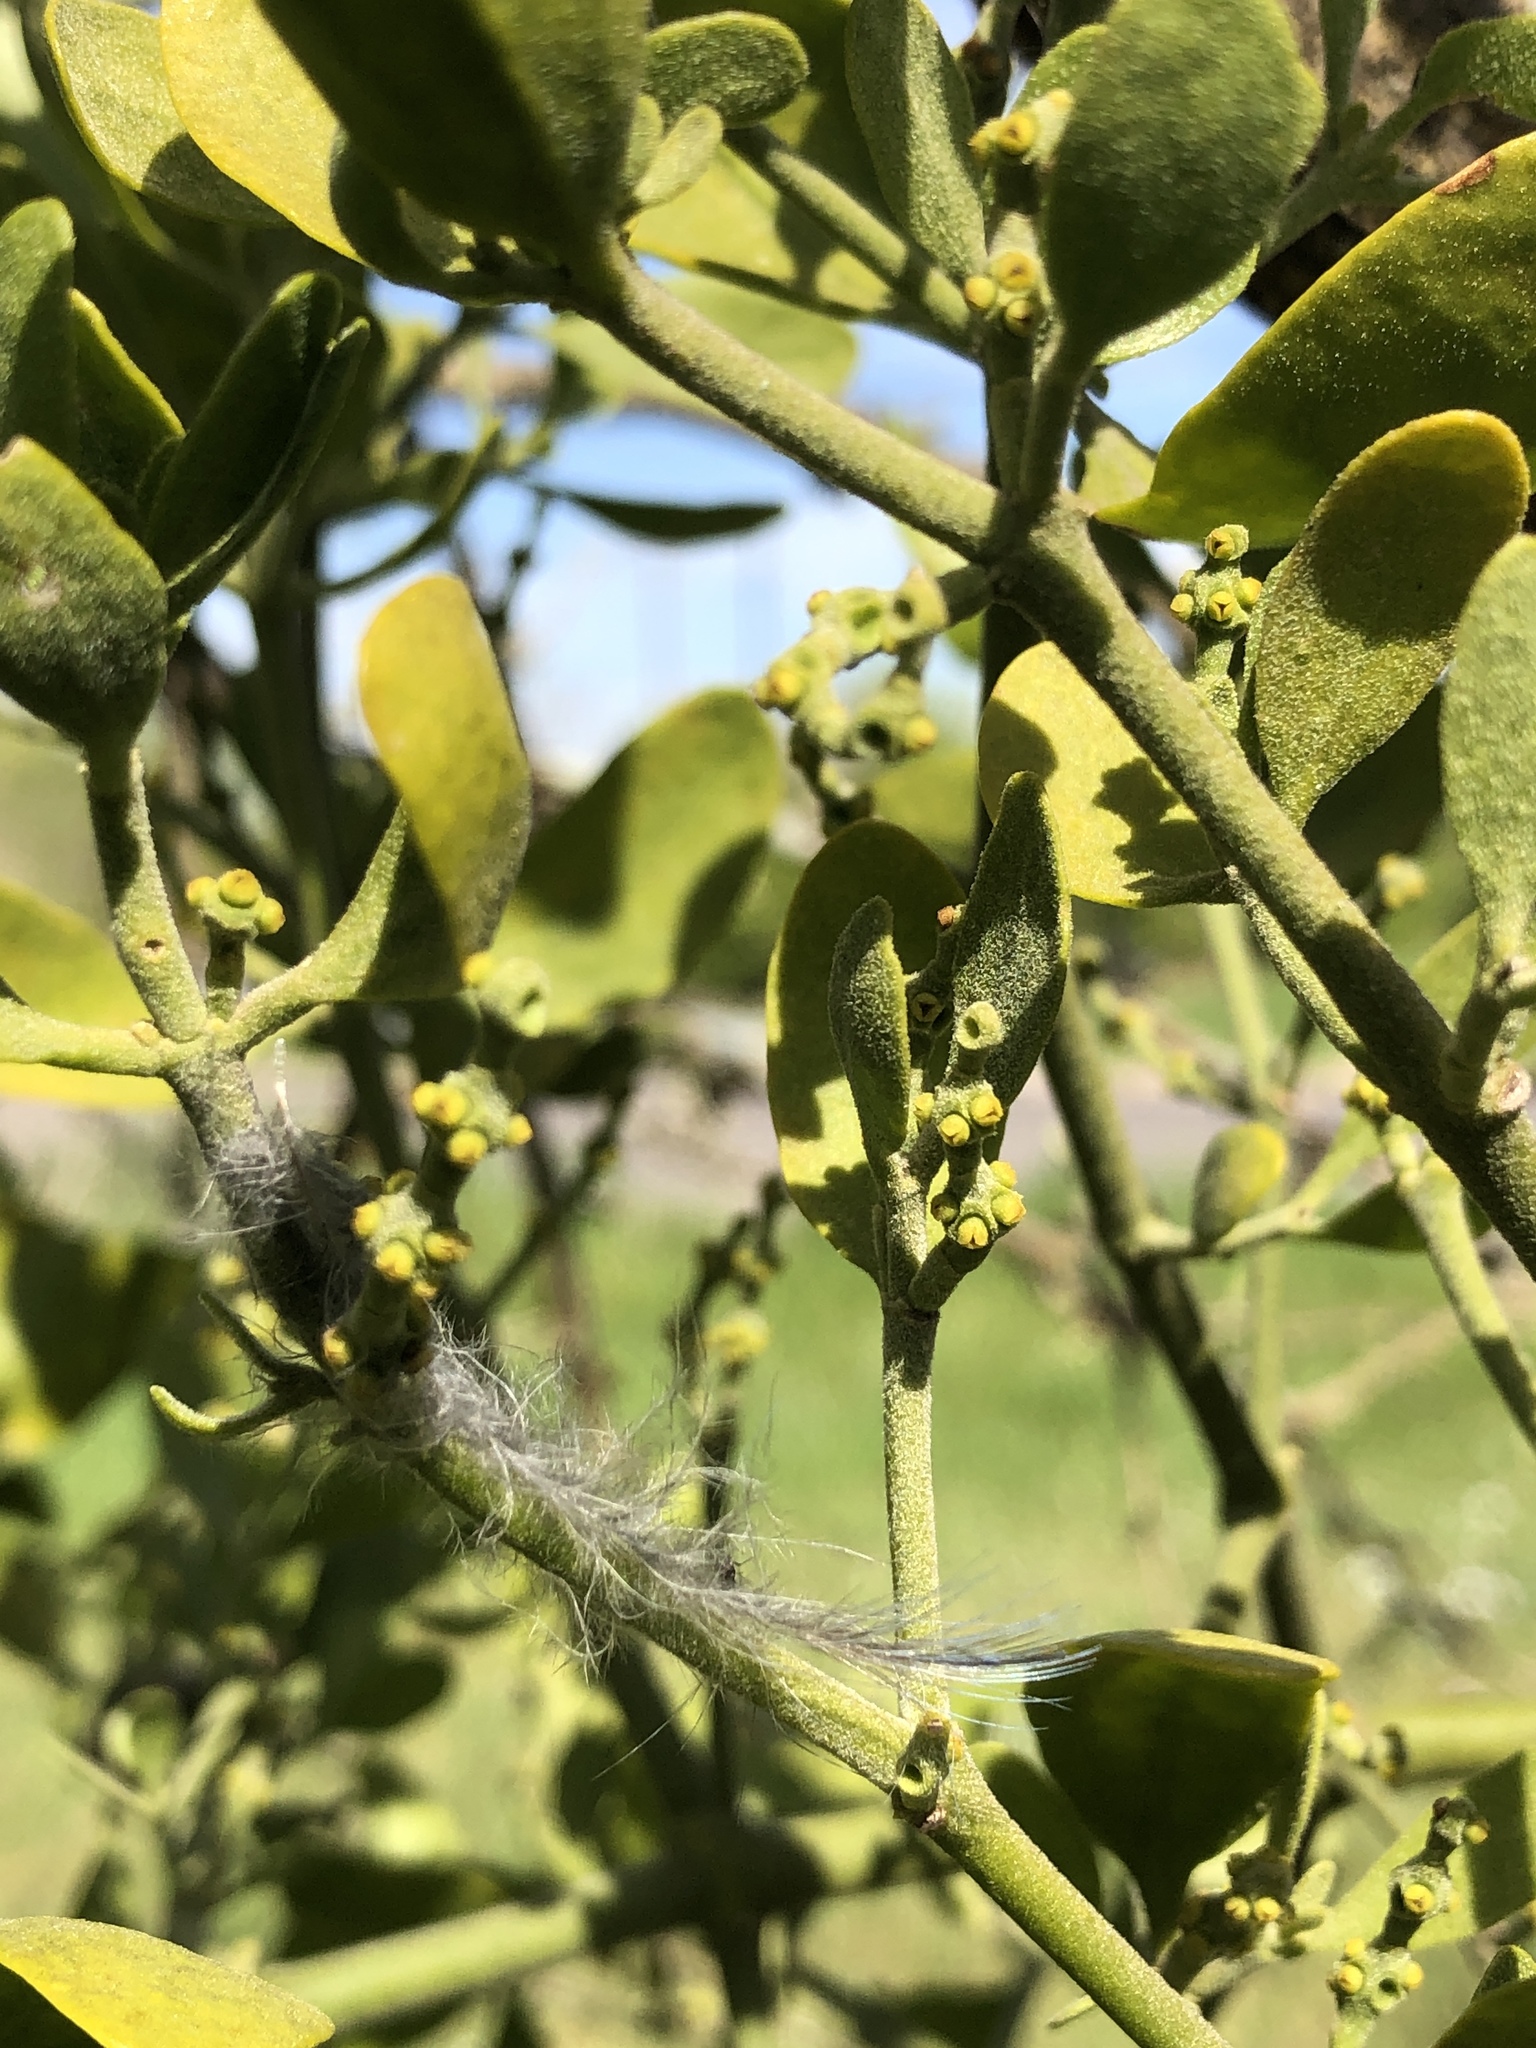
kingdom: Plantae
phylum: Tracheophyta
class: Magnoliopsida
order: Santalales
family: Viscaceae
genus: Phoradendron
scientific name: Phoradendron leucarpum
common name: Pacific mistletoe
